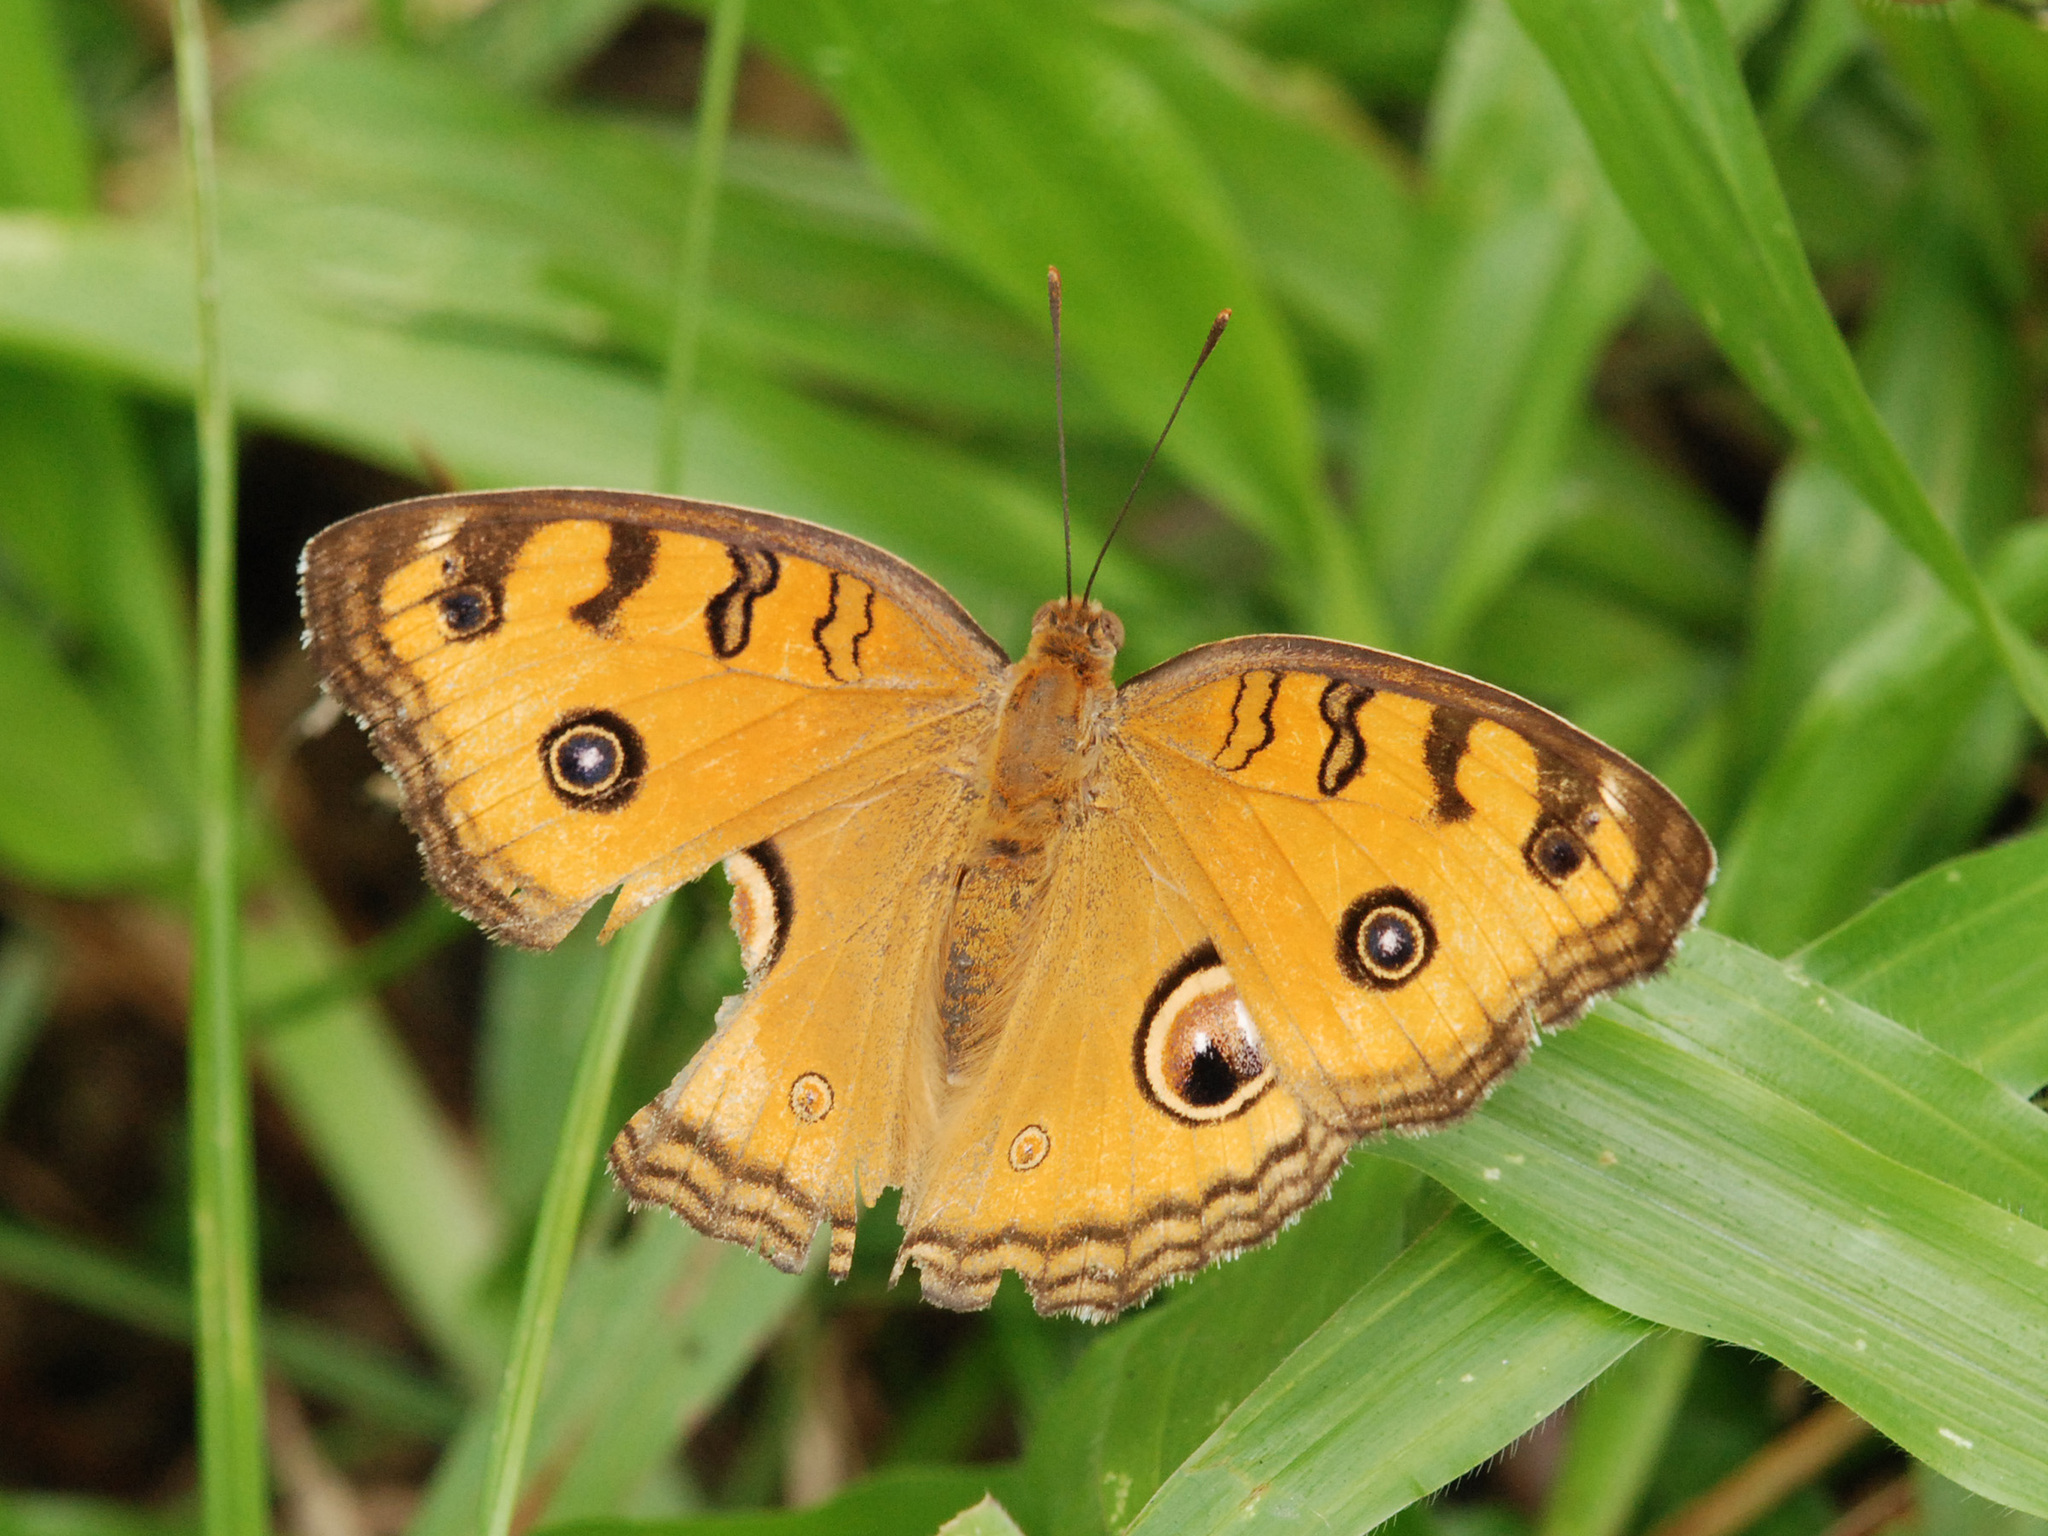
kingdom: Animalia
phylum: Arthropoda
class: Insecta
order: Lepidoptera
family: Nymphalidae
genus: Junonia
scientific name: Junonia almana
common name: Peacock pansy
